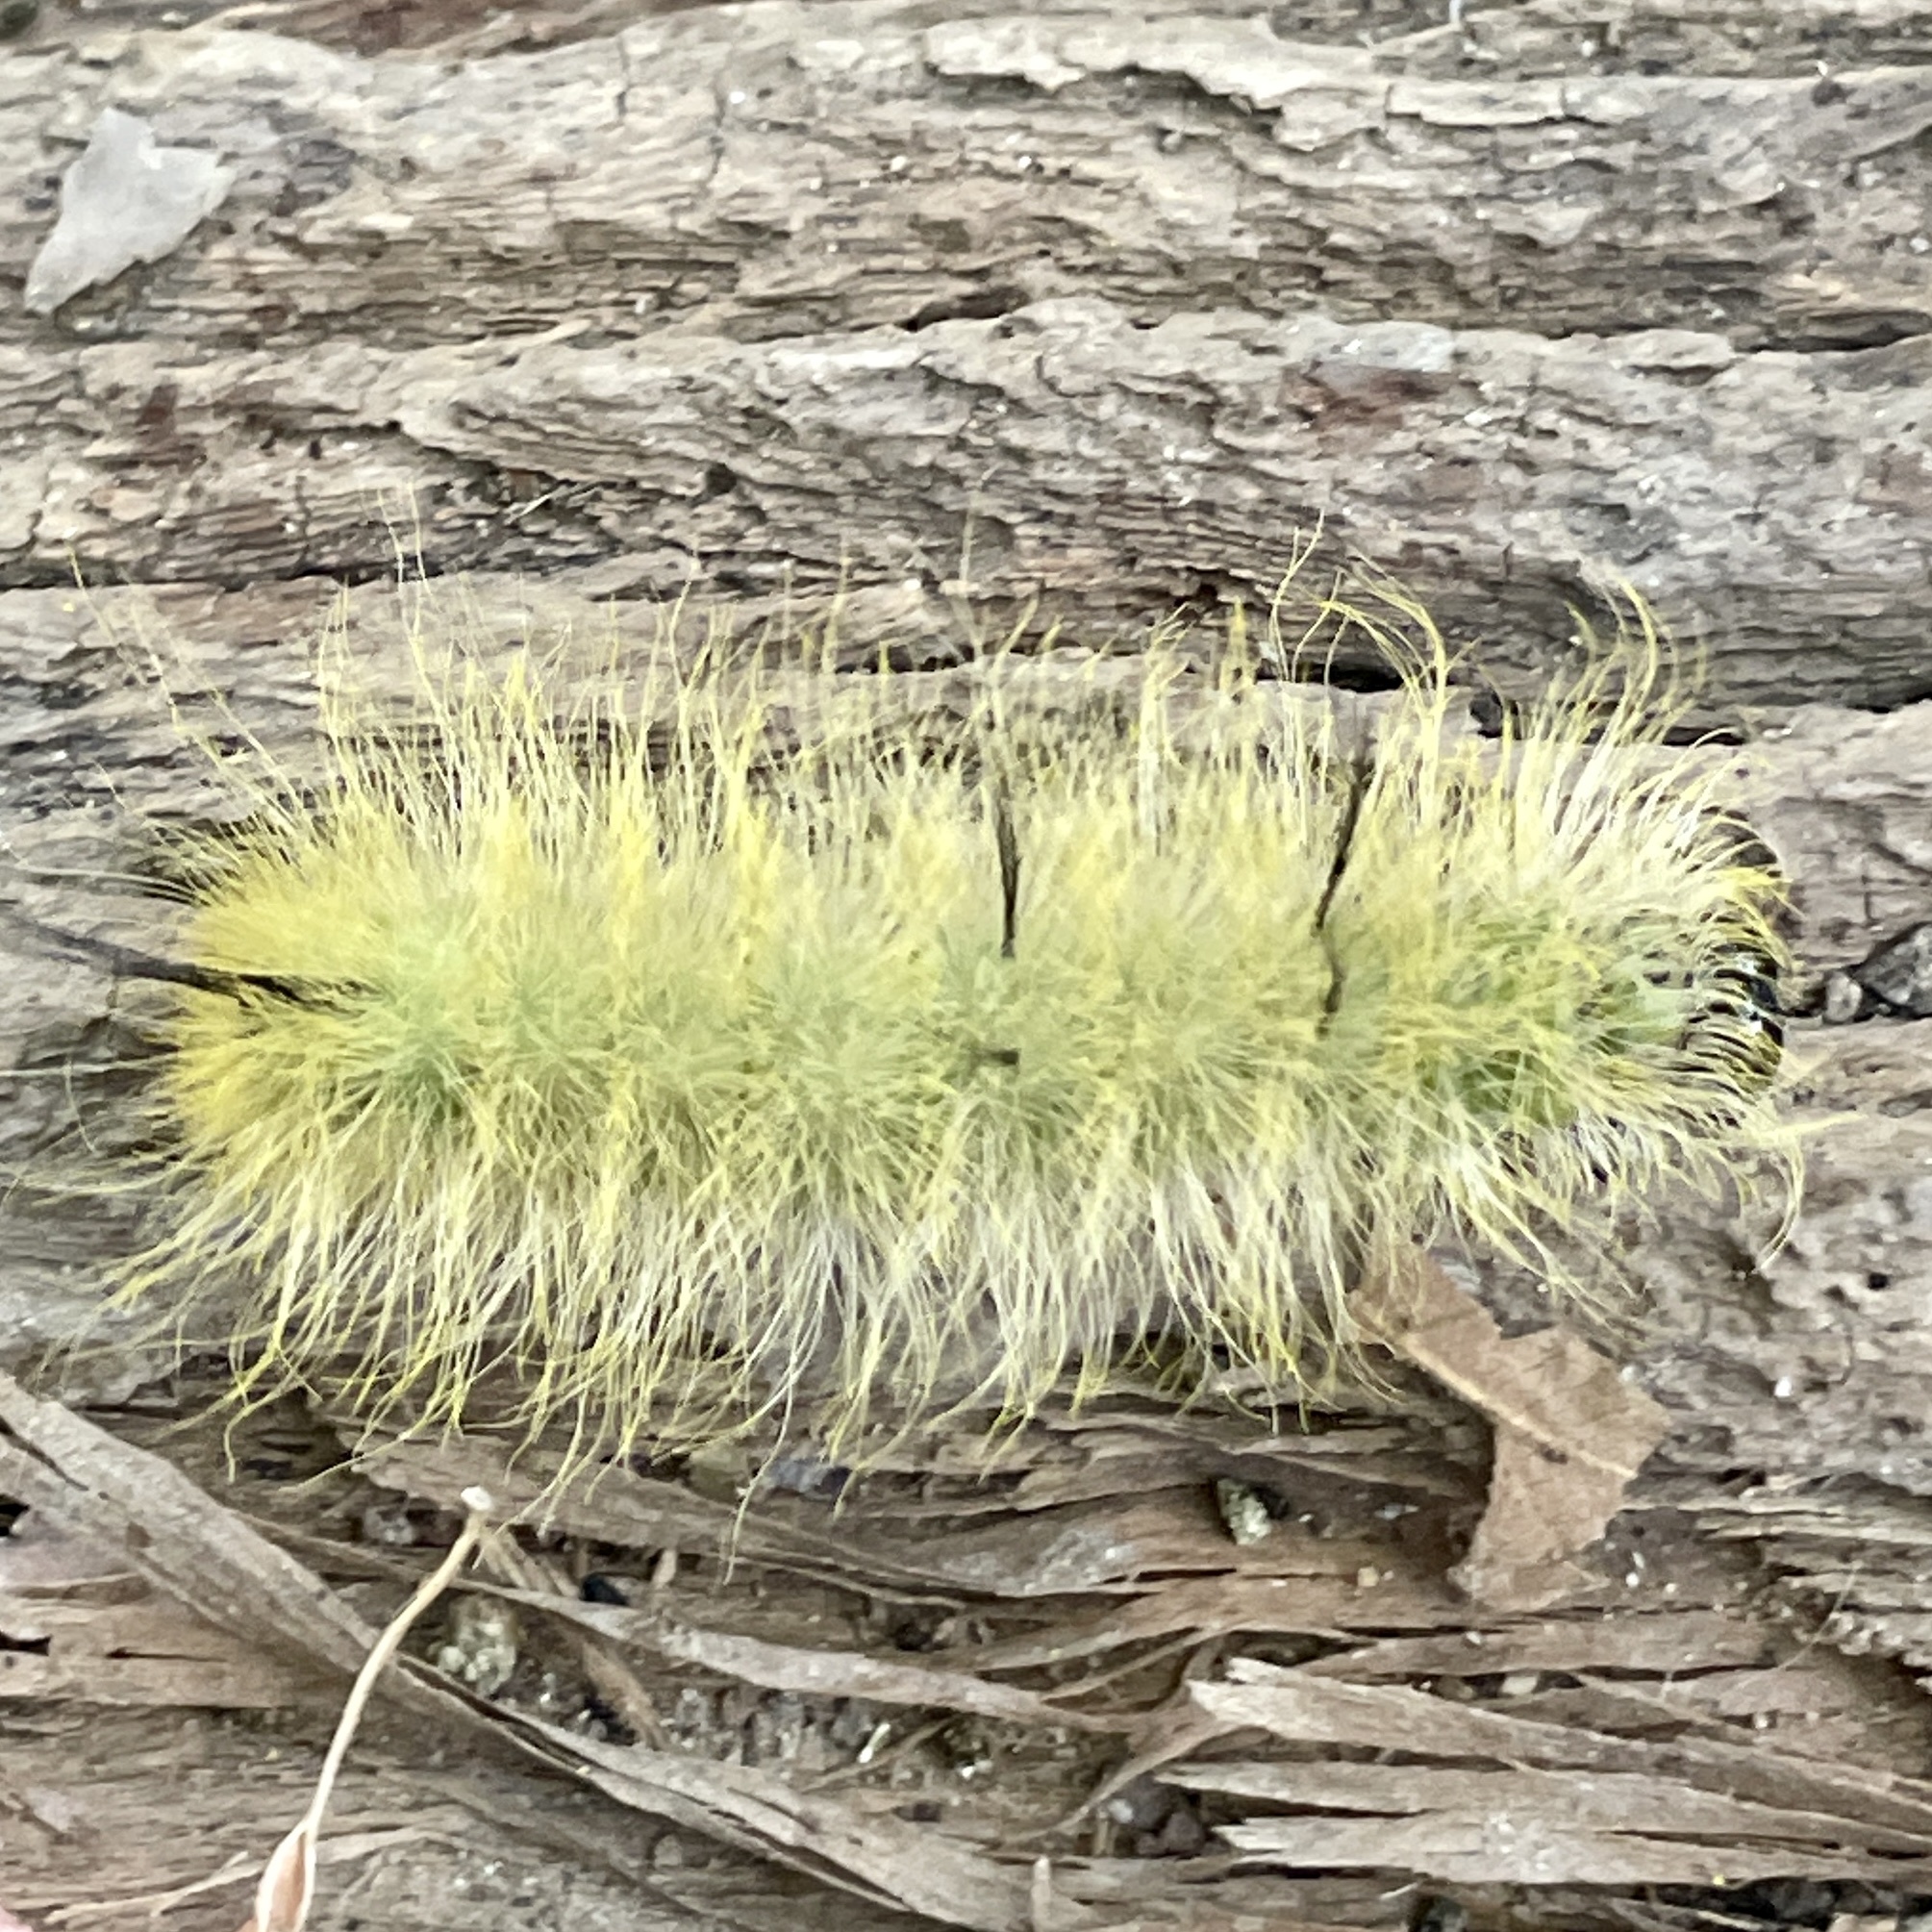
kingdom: Animalia
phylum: Arthropoda
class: Insecta
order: Lepidoptera
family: Noctuidae
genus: Acronicta
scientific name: Acronicta americana
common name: American dagger
